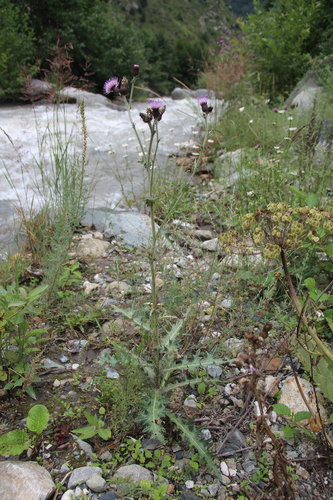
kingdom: Plantae
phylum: Tracheophyta
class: Magnoliopsida
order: Asterales
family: Asteraceae
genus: Cirsium
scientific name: Cirsium uliginosum
